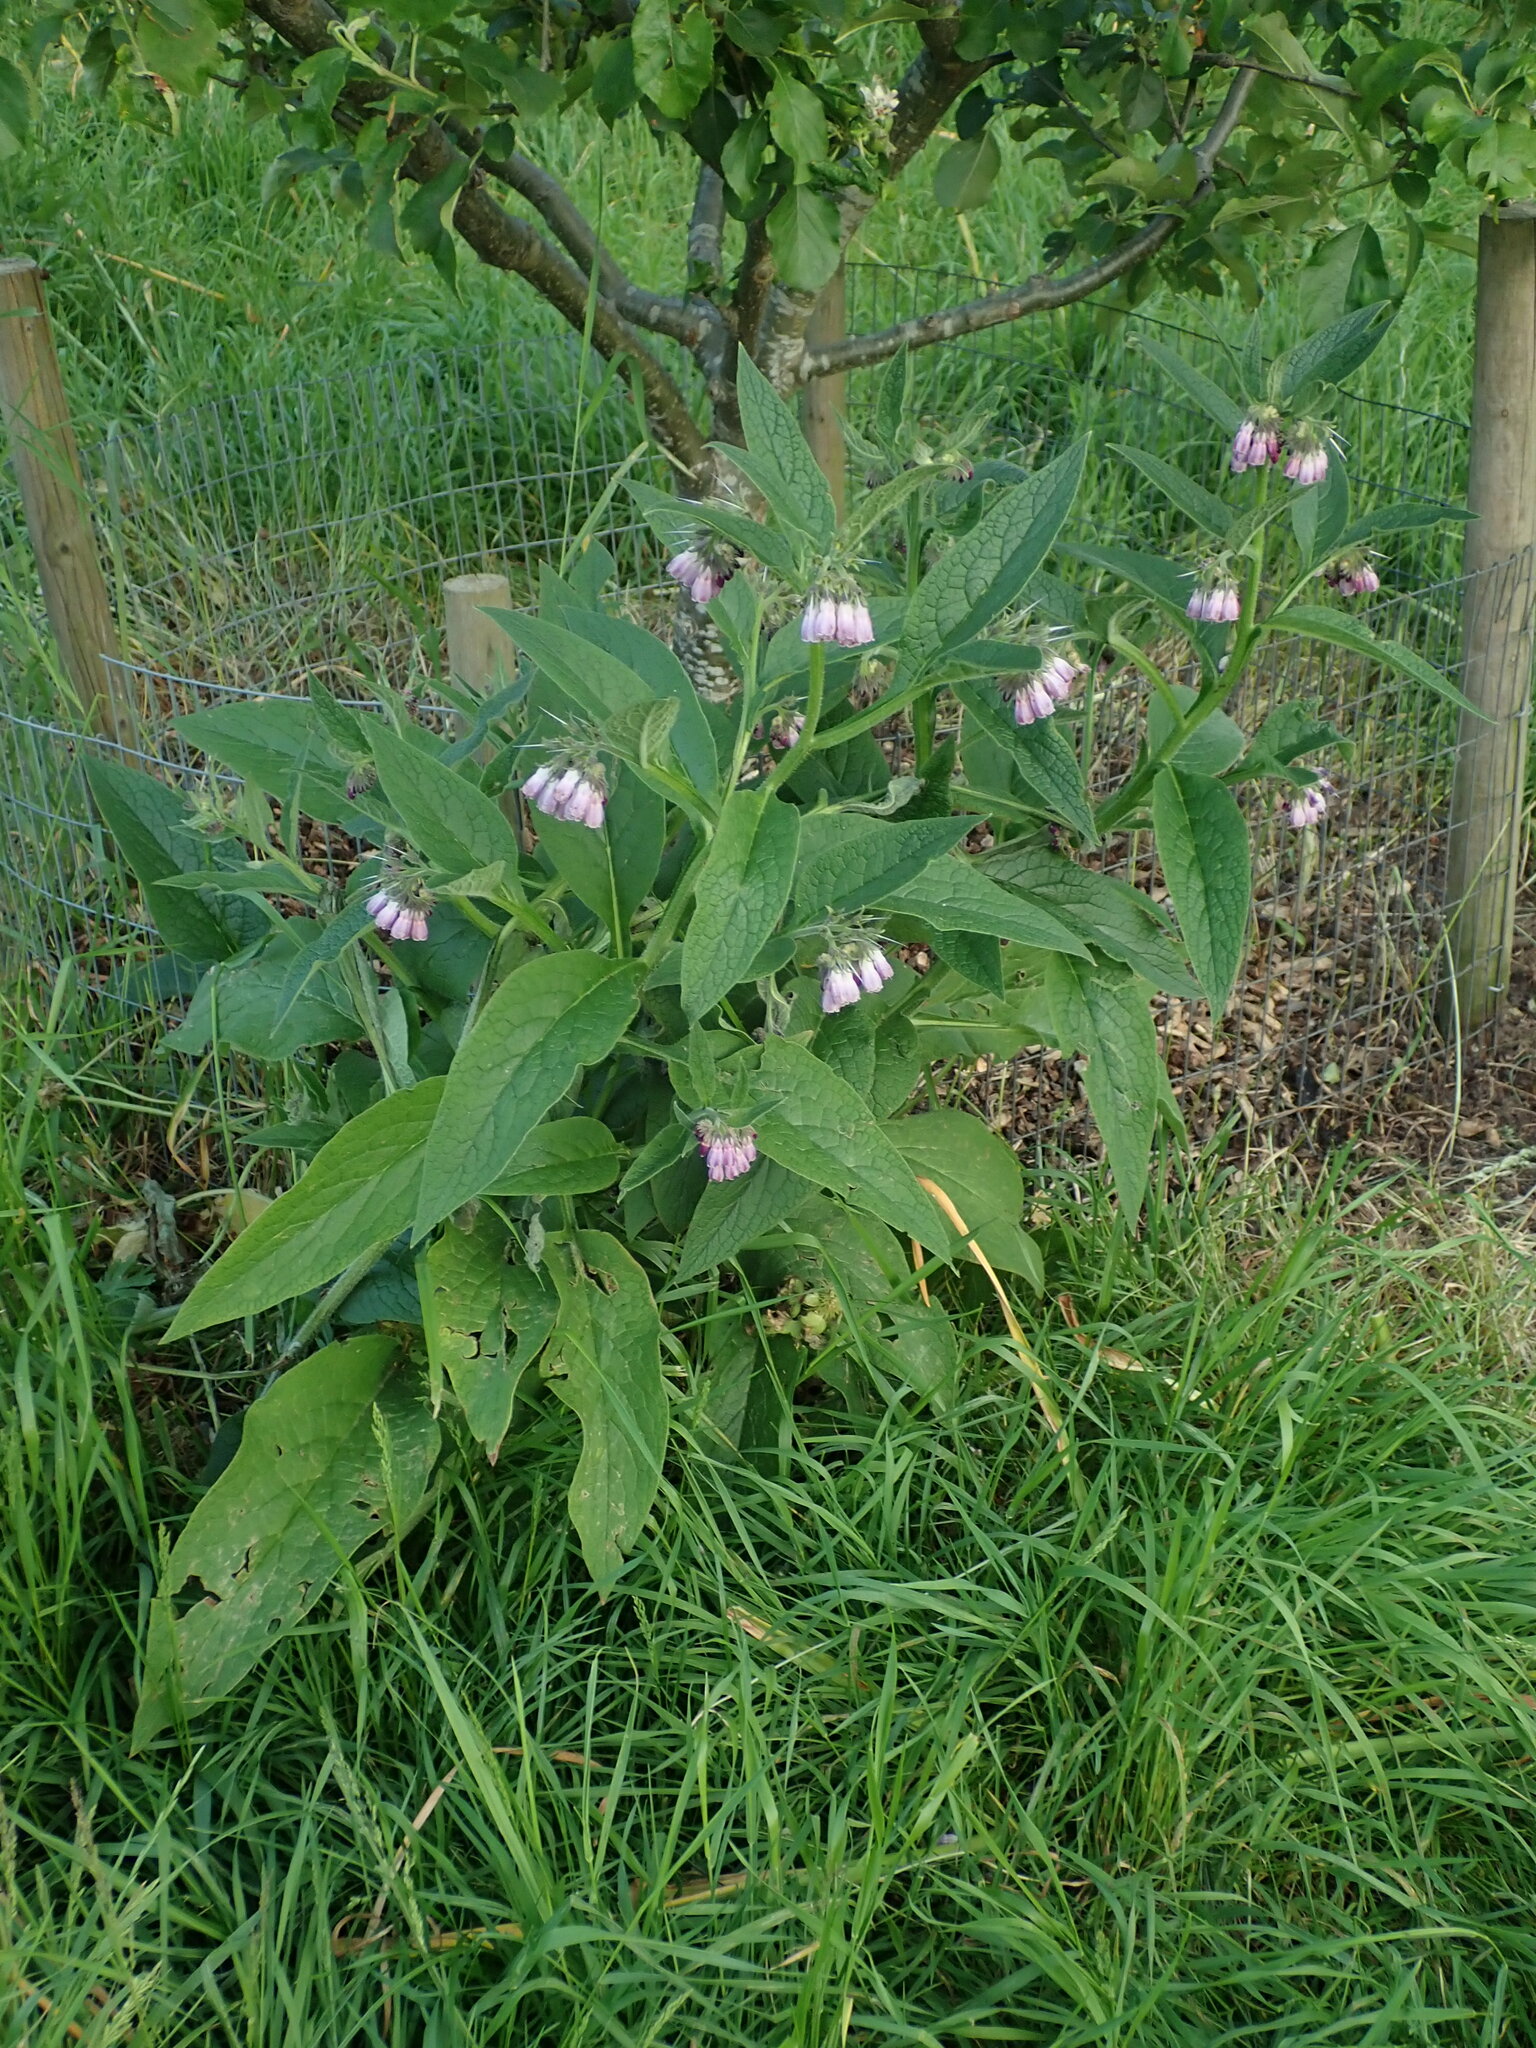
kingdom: Plantae
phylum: Tracheophyta
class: Magnoliopsida
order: Boraginales
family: Boraginaceae
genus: Symphytum
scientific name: Symphytum uplandicum
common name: Russian comfrey
